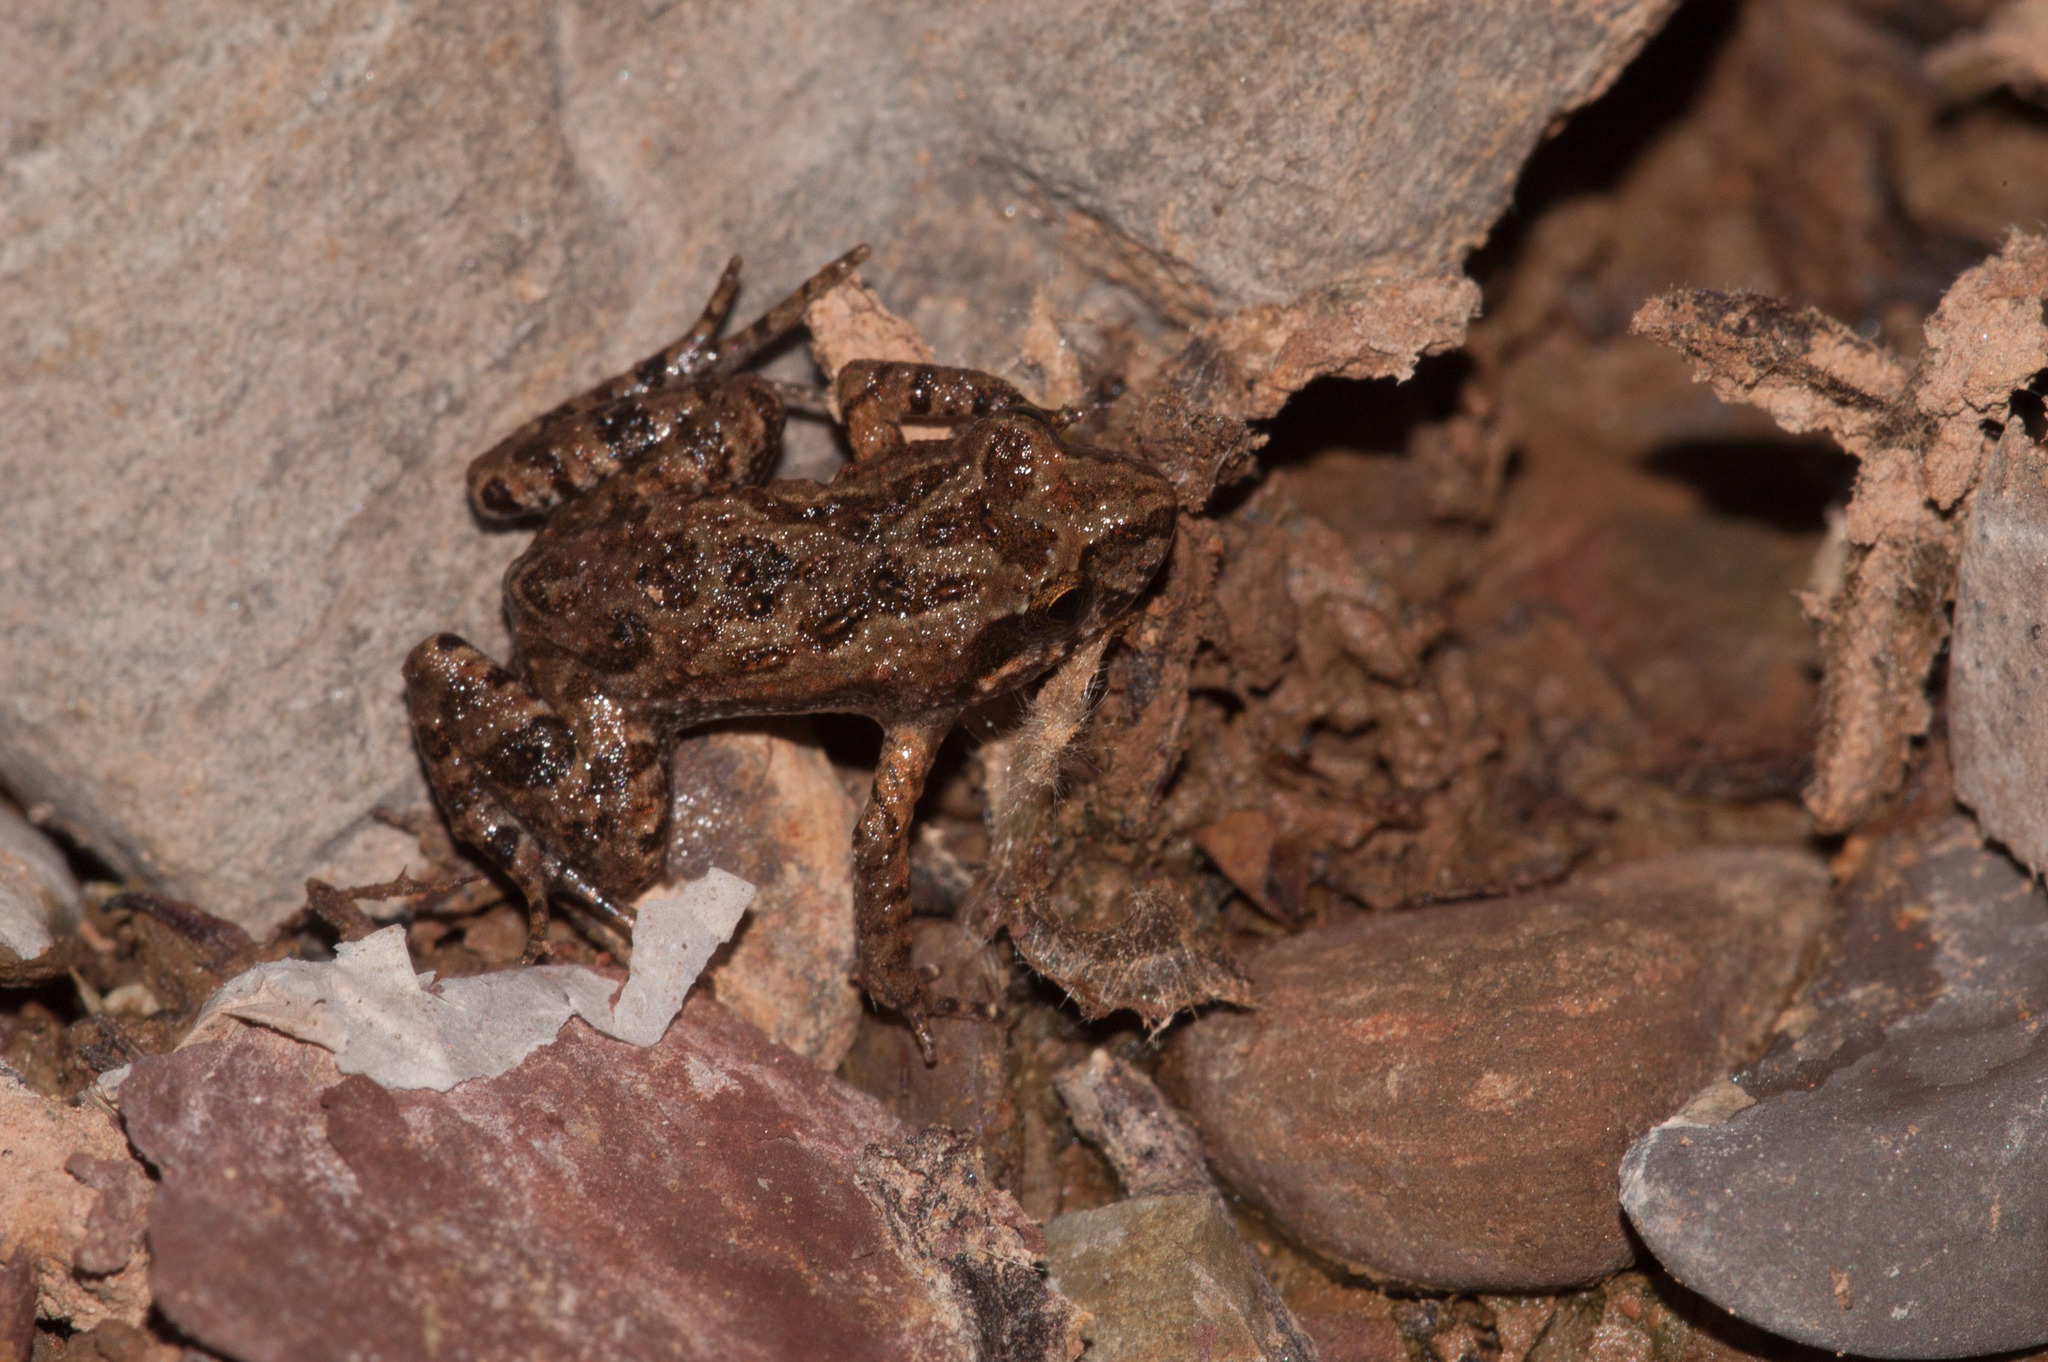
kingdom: Animalia
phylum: Chordata
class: Amphibia
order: Anura
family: Myobatrachidae
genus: Crinia
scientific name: Crinia flindersensis
